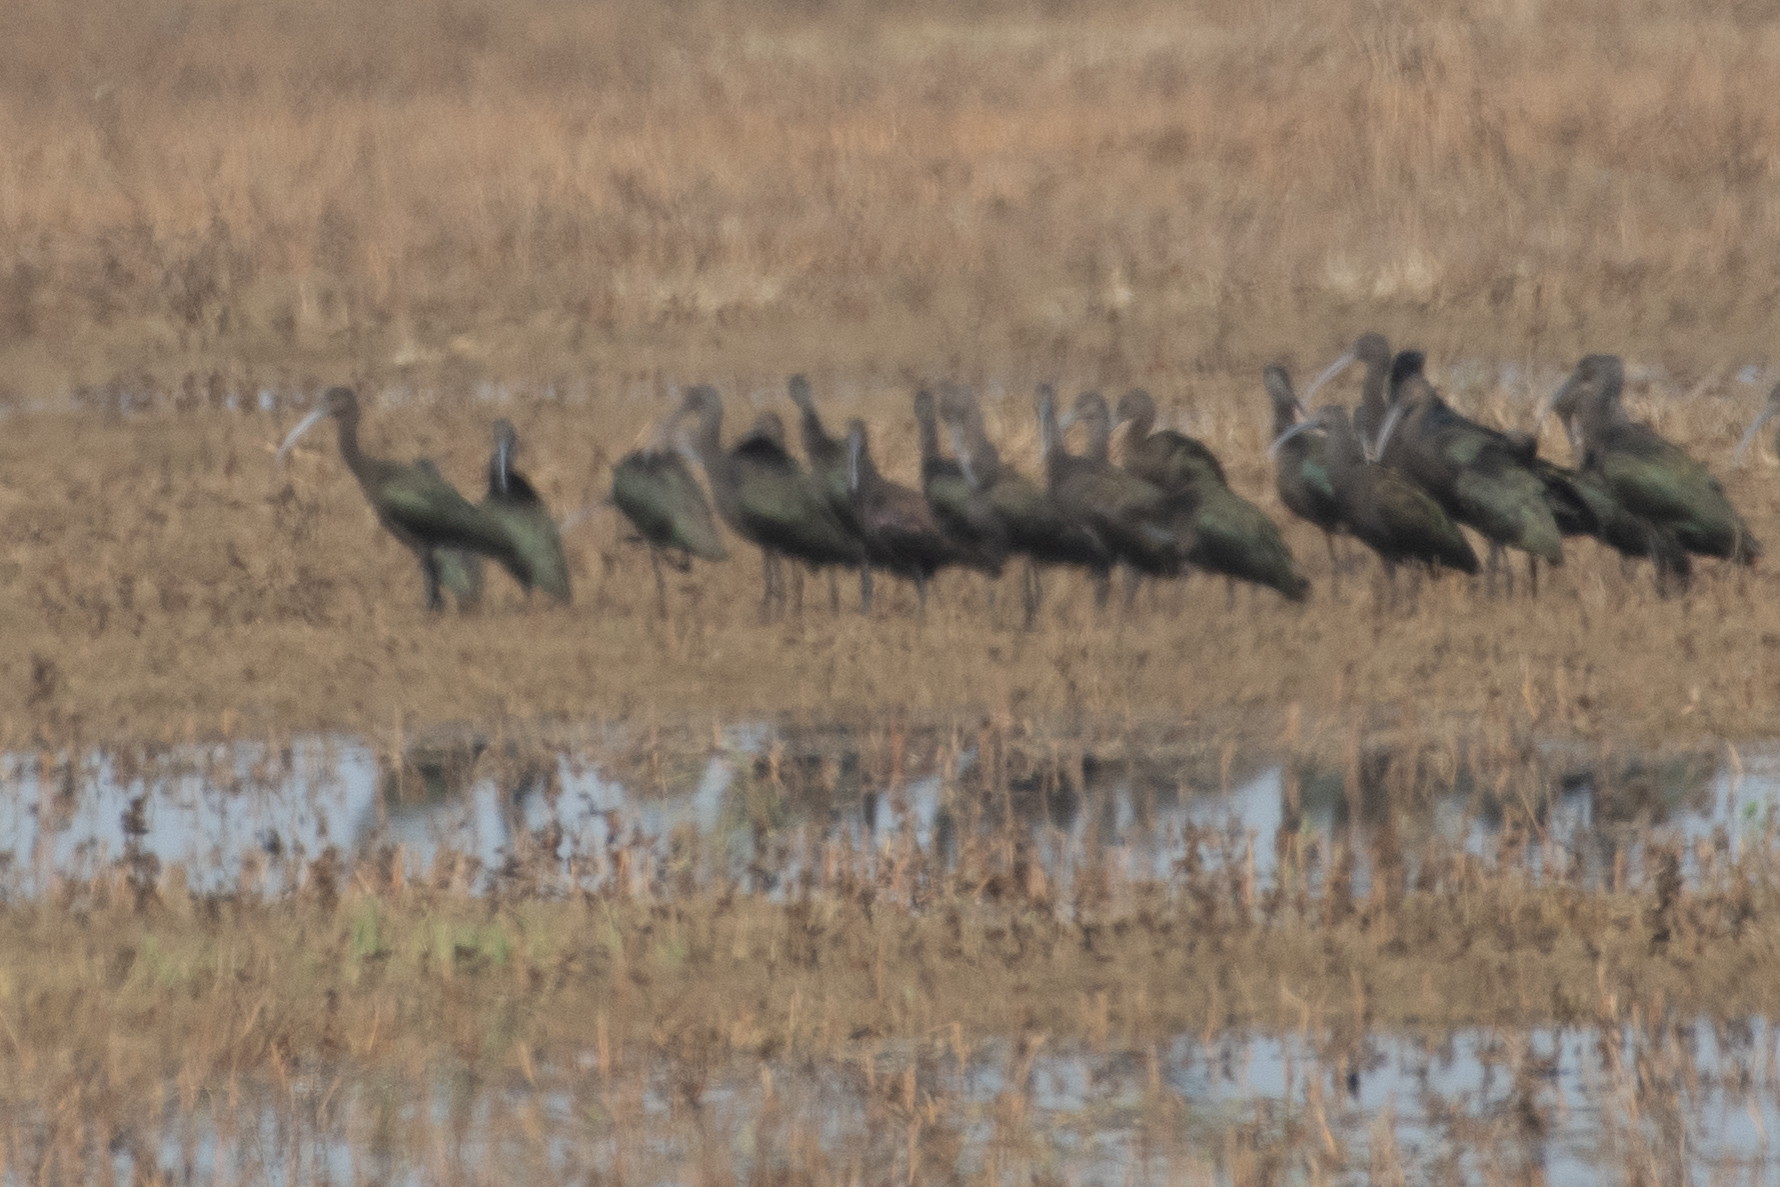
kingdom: Animalia
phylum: Chordata
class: Aves
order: Pelecaniformes
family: Threskiornithidae
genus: Plegadis
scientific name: Plegadis chihi
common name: White-faced ibis
